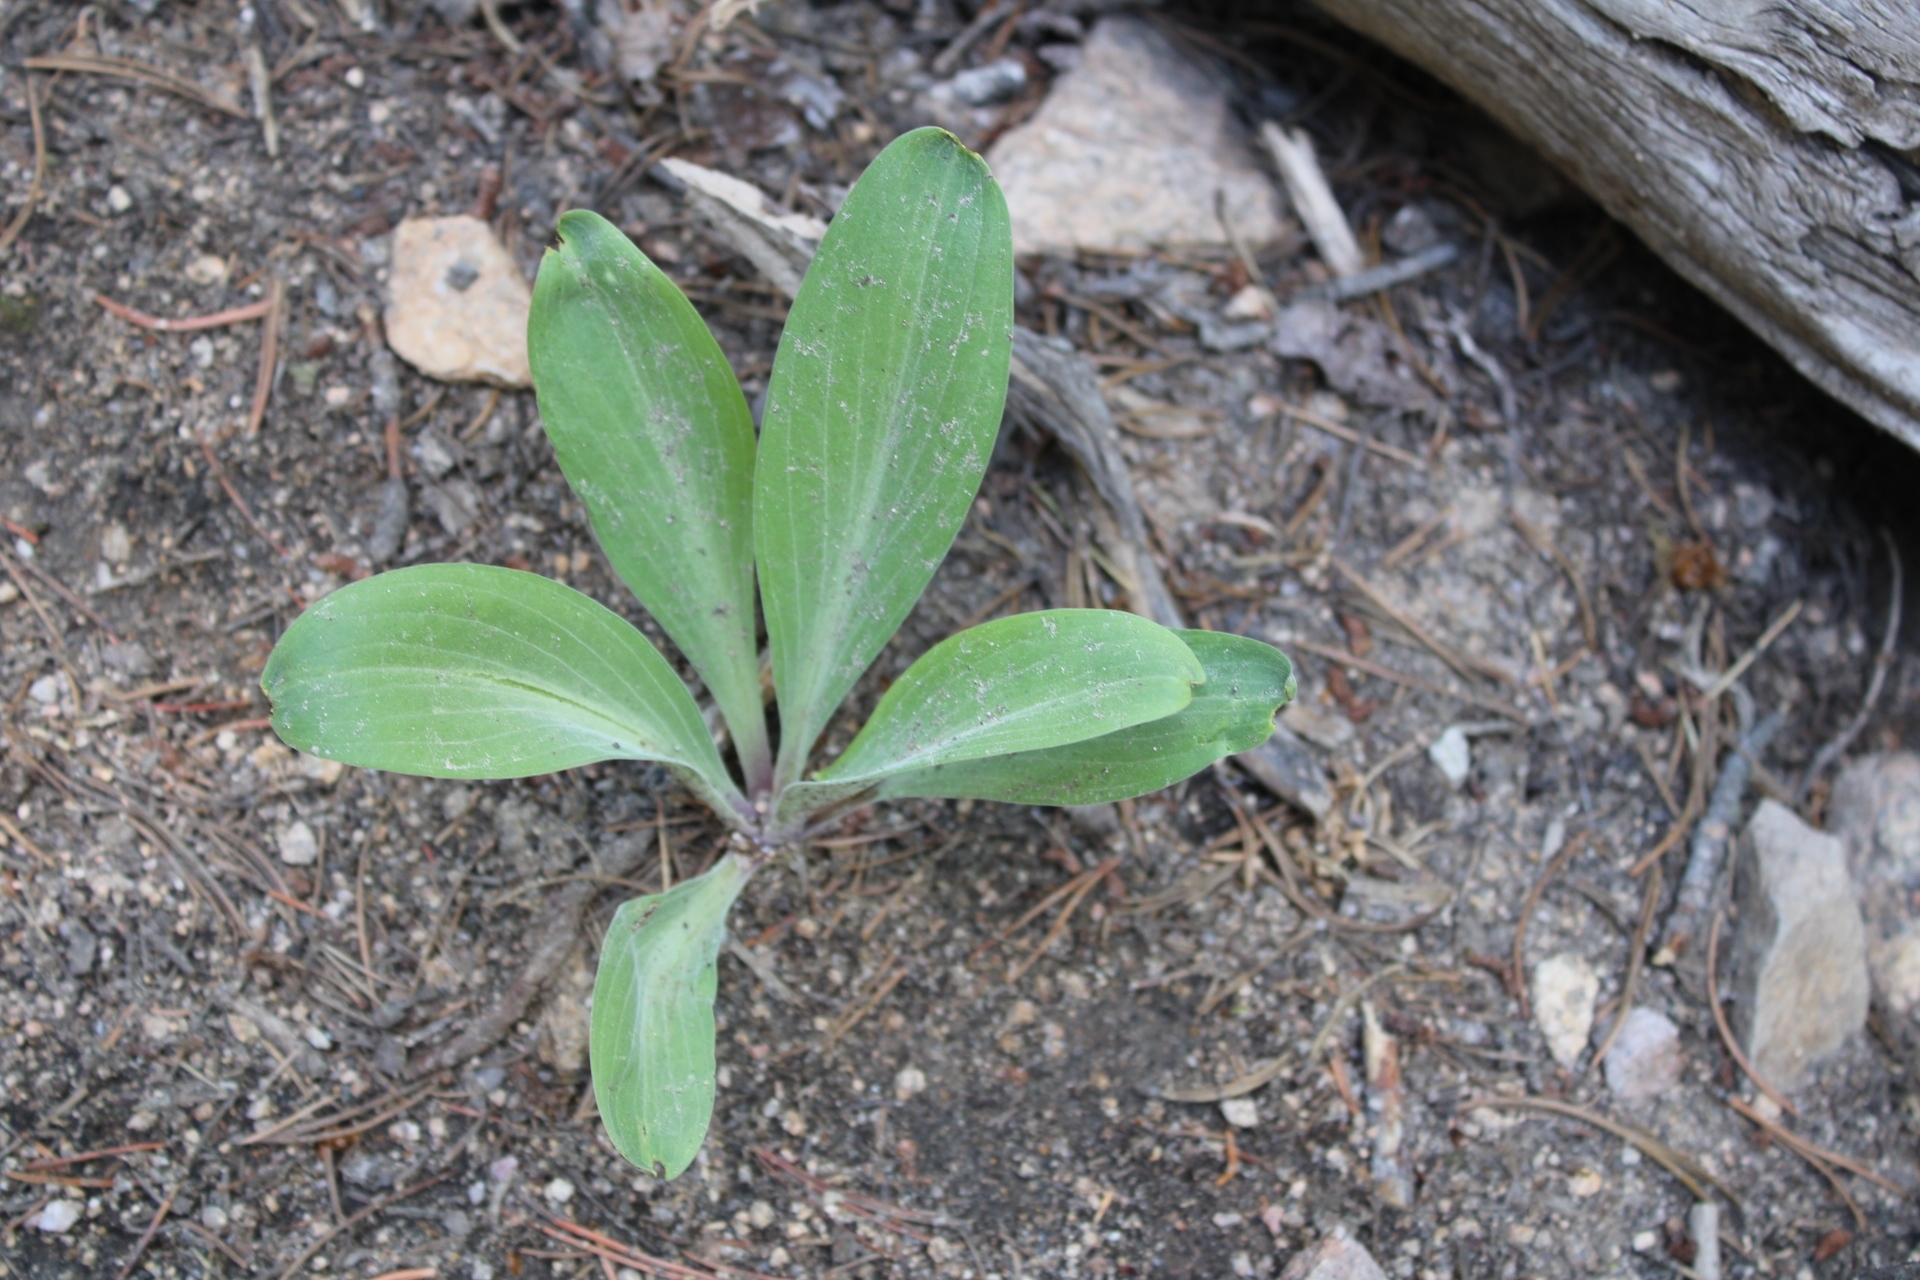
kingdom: Plantae
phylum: Tracheophyta
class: Magnoliopsida
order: Gentianales
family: Gentianaceae
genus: Frasera
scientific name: Frasera speciosa
